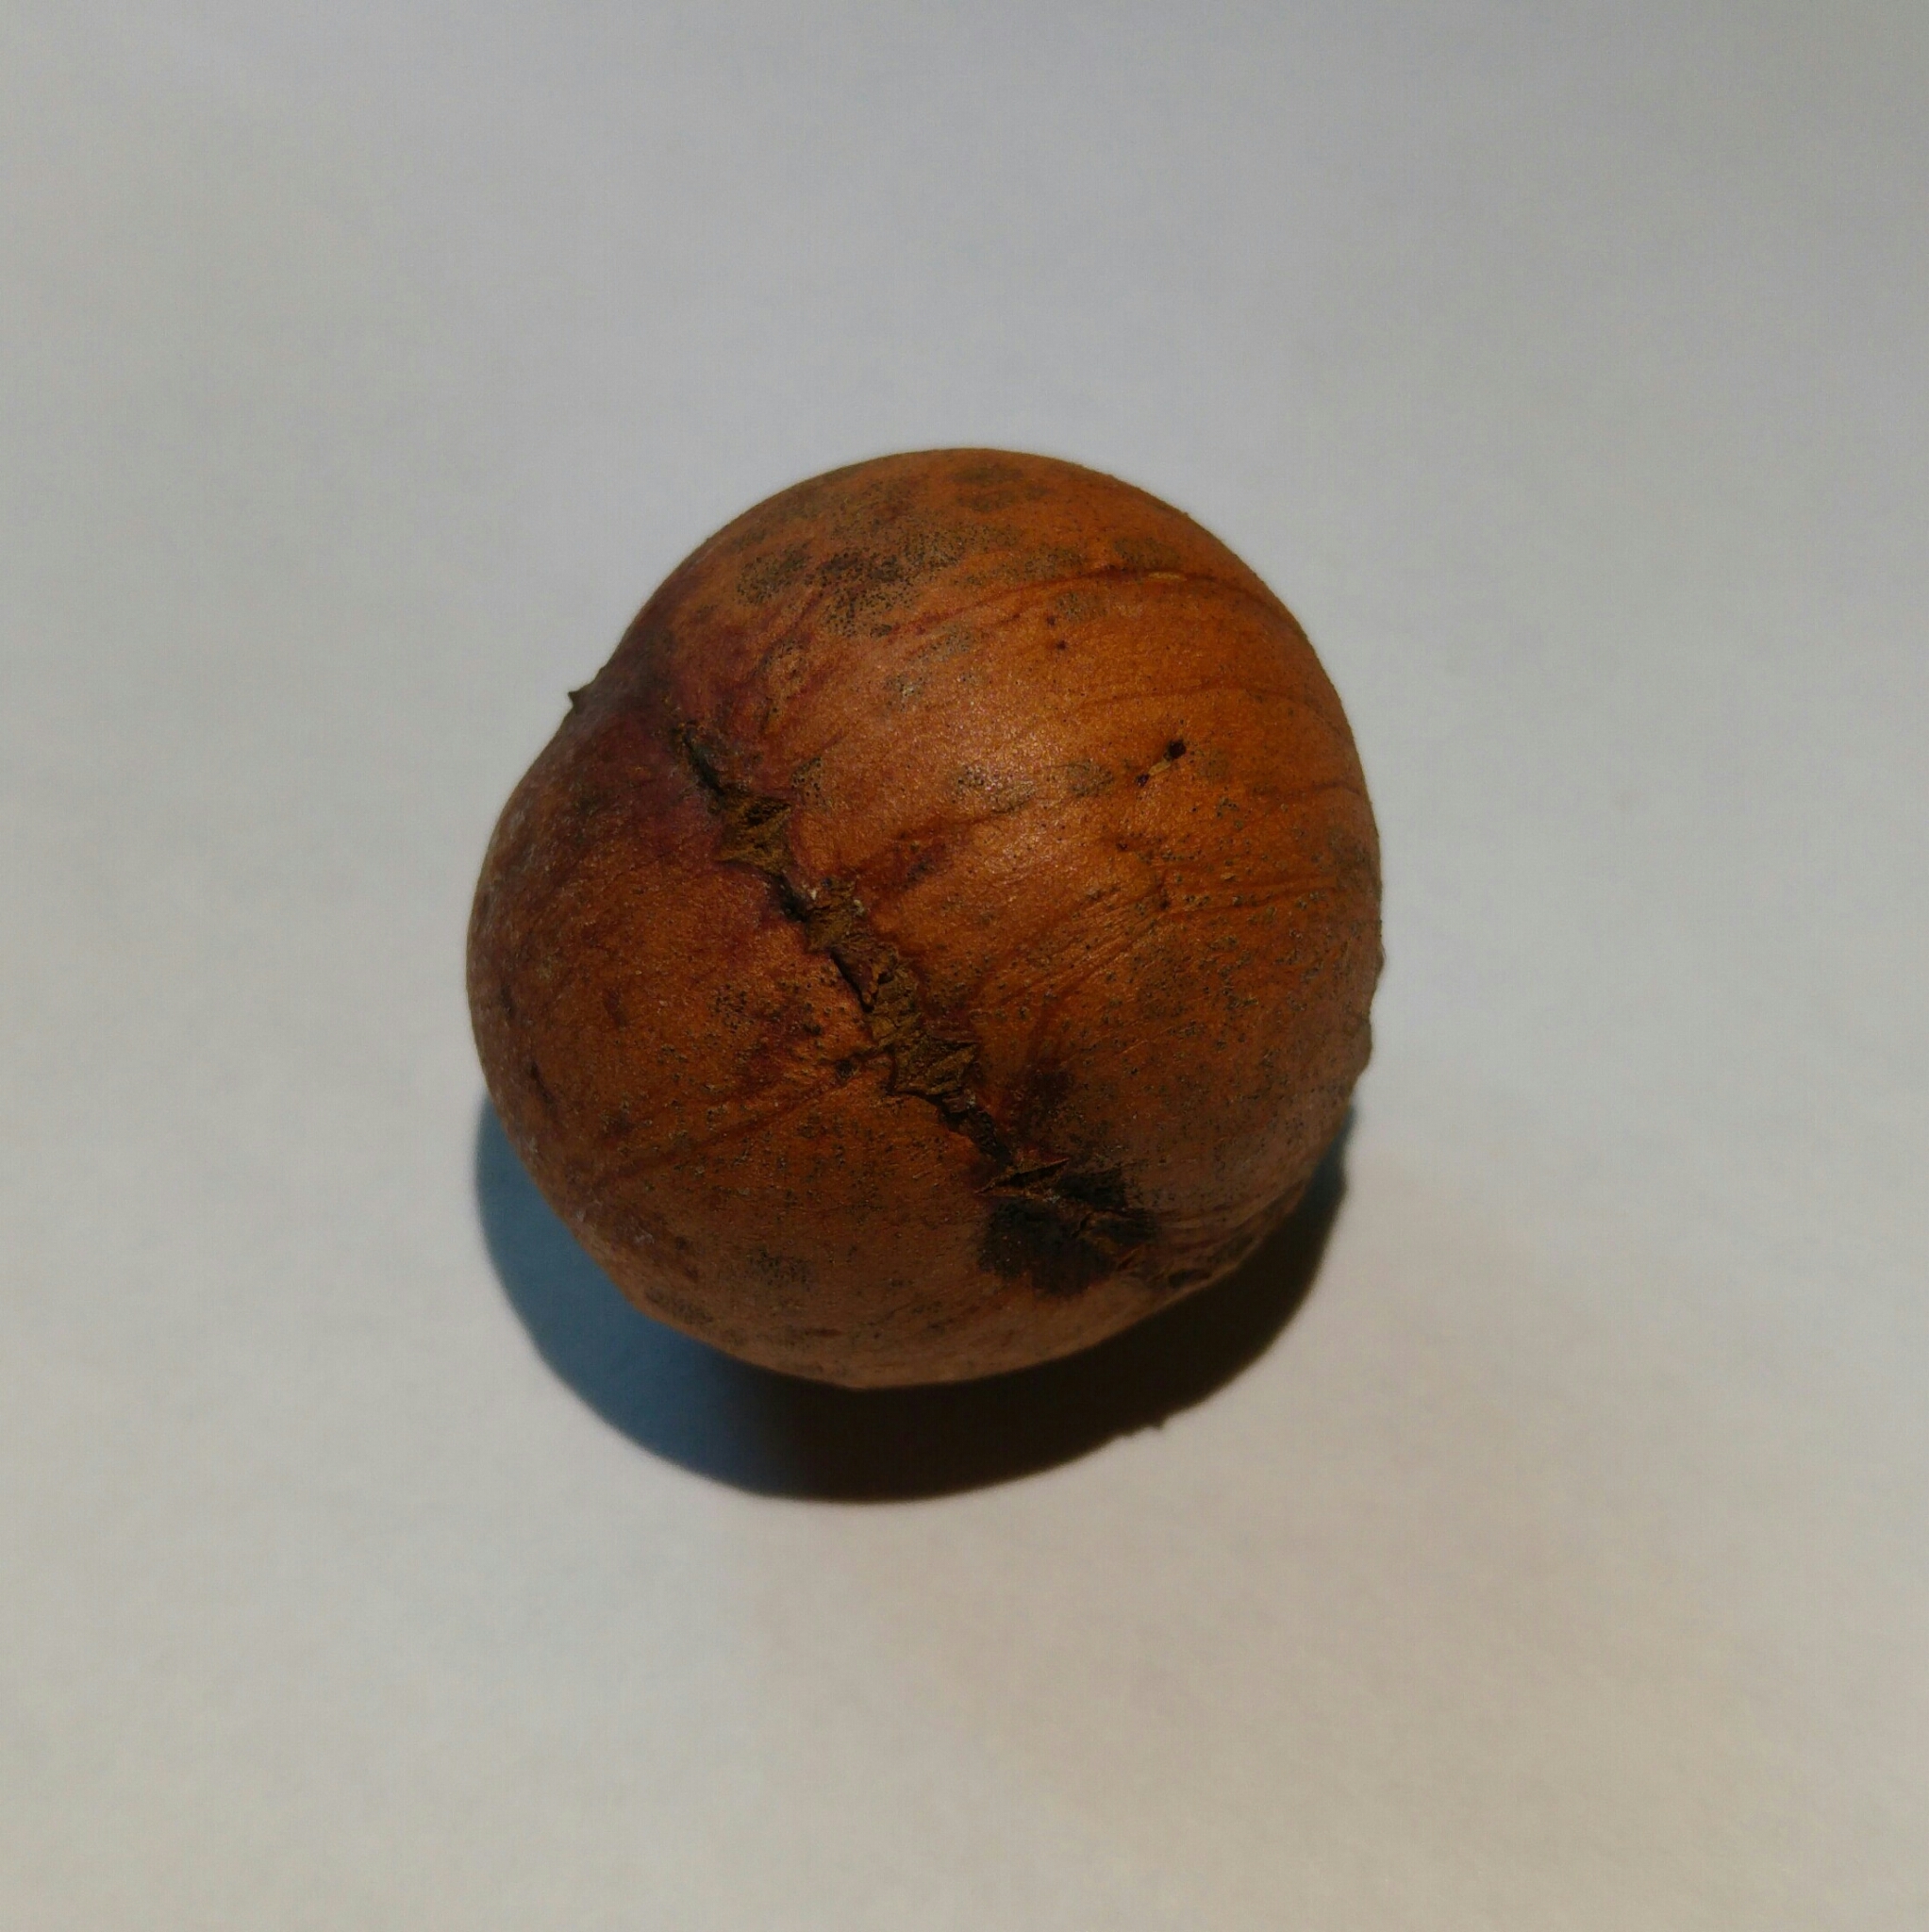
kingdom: Animalia
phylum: Arthropoda
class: Insecta
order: Hymenoptera
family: Cynipidae
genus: Andricus
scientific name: Andricus quercustozae
